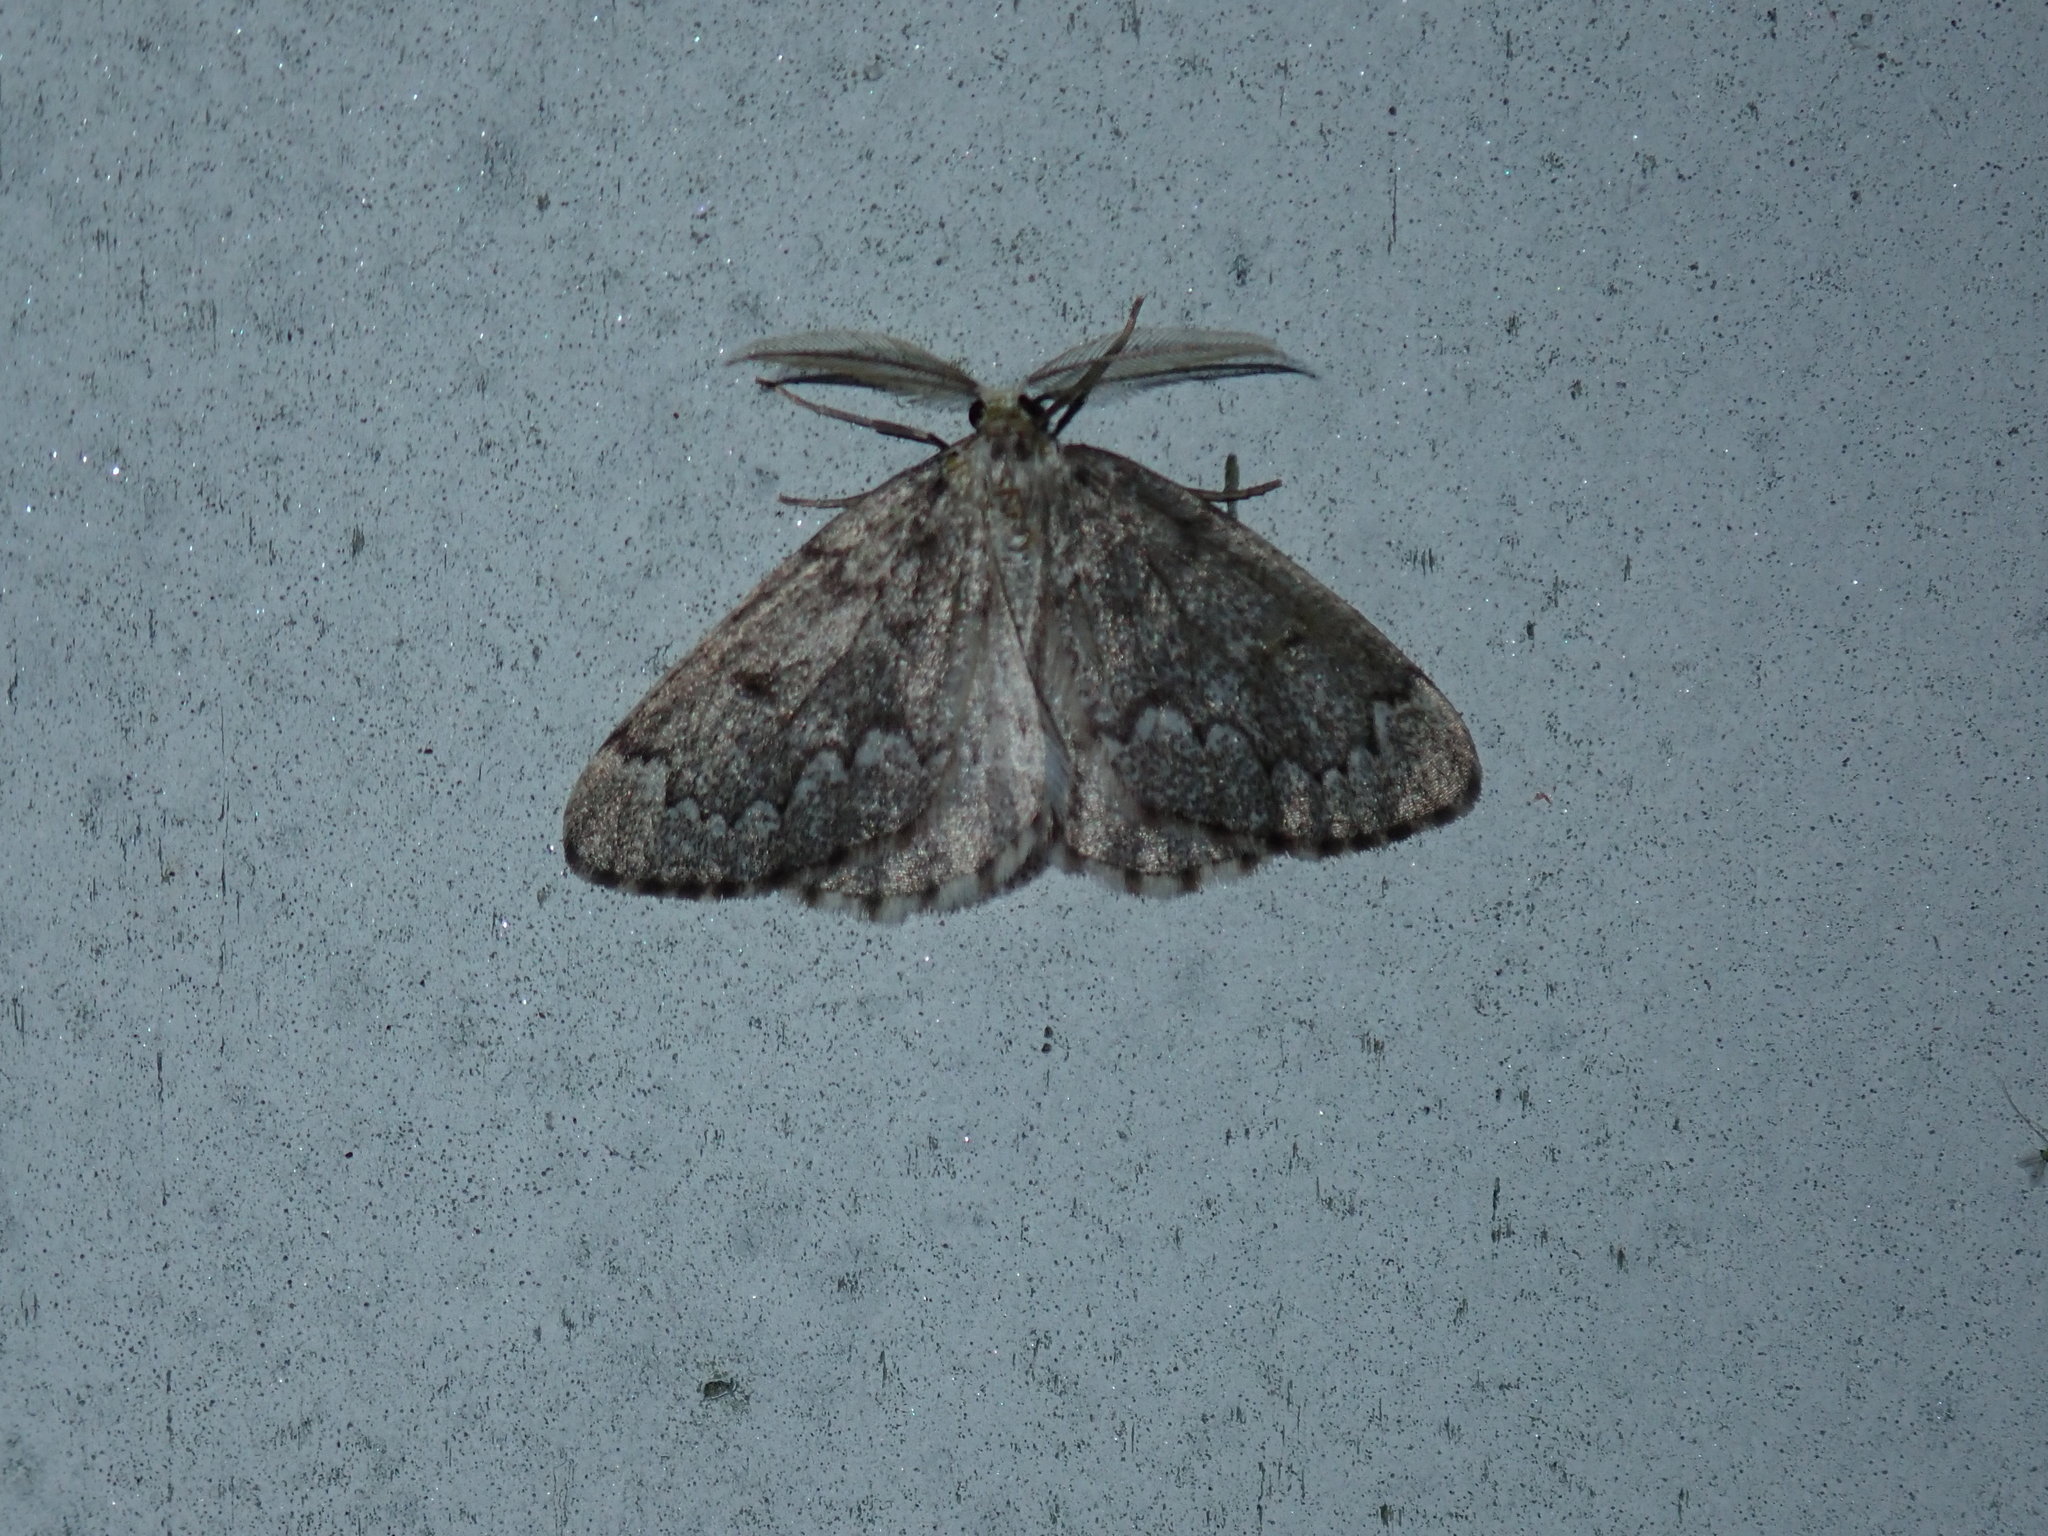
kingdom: Animalia
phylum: Arthropoda
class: Insecta
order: Lepidoptera
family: Geometridae
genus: Nepytia
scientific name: Nepytia canosaria
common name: False hemlock looper
